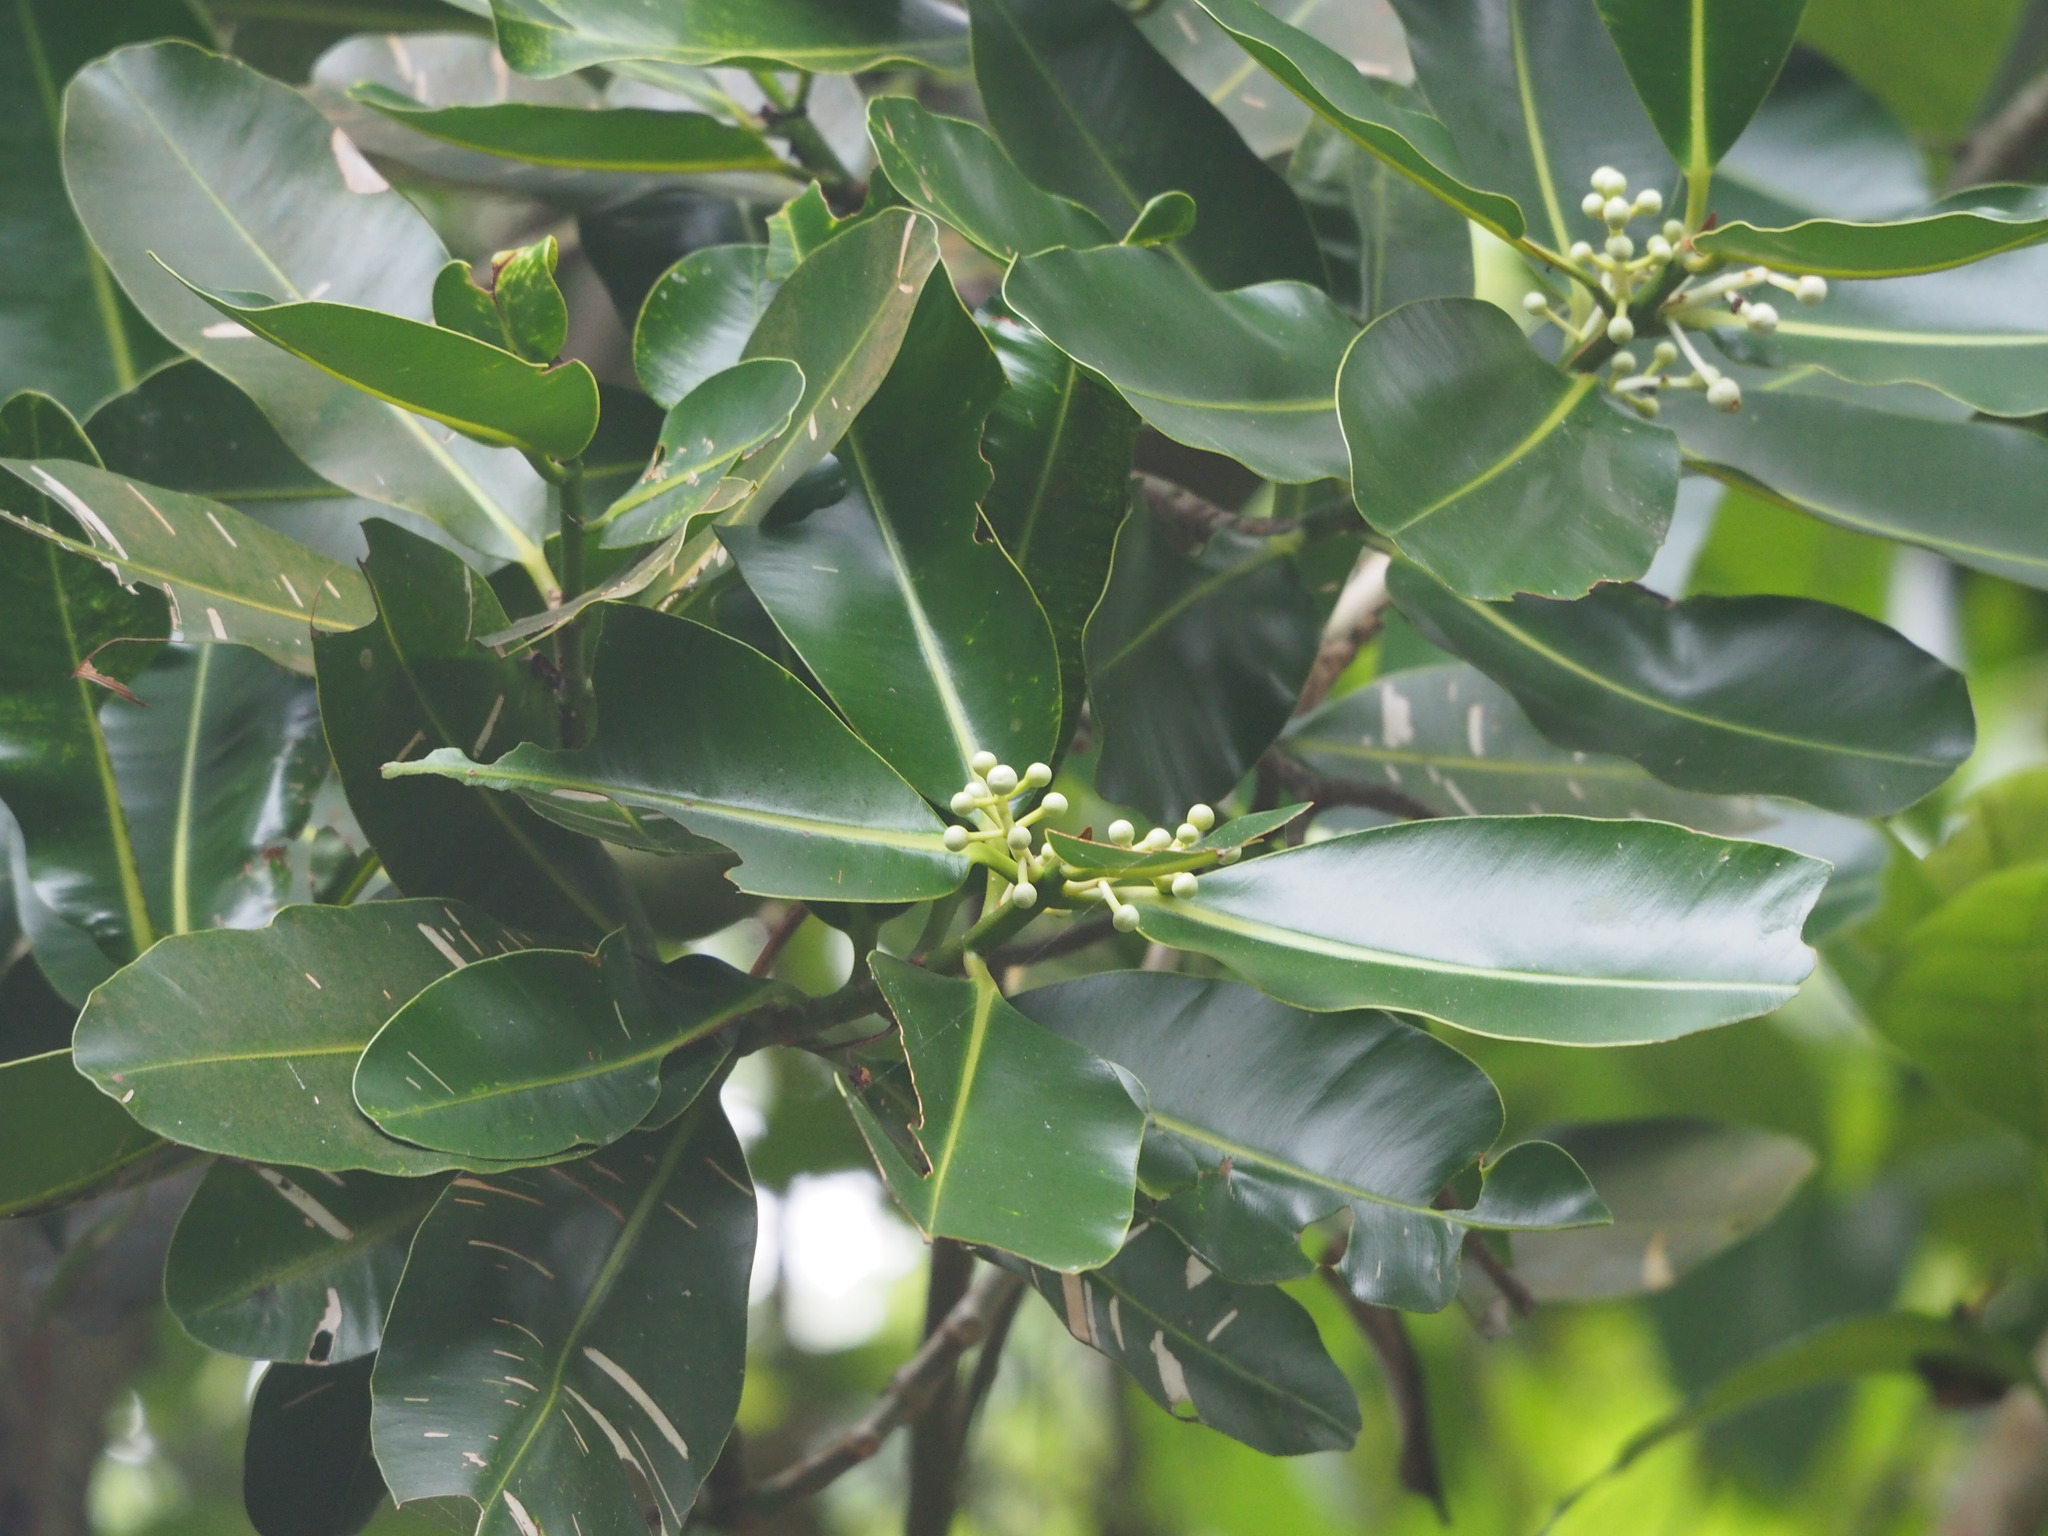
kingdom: Plantae
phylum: Tracheophyta
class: Magnoliopsida
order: Malpighiales
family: Calophyllaceae
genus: Calophyllum
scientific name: Calophyllum inophyllum
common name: Alexandrian laurel
